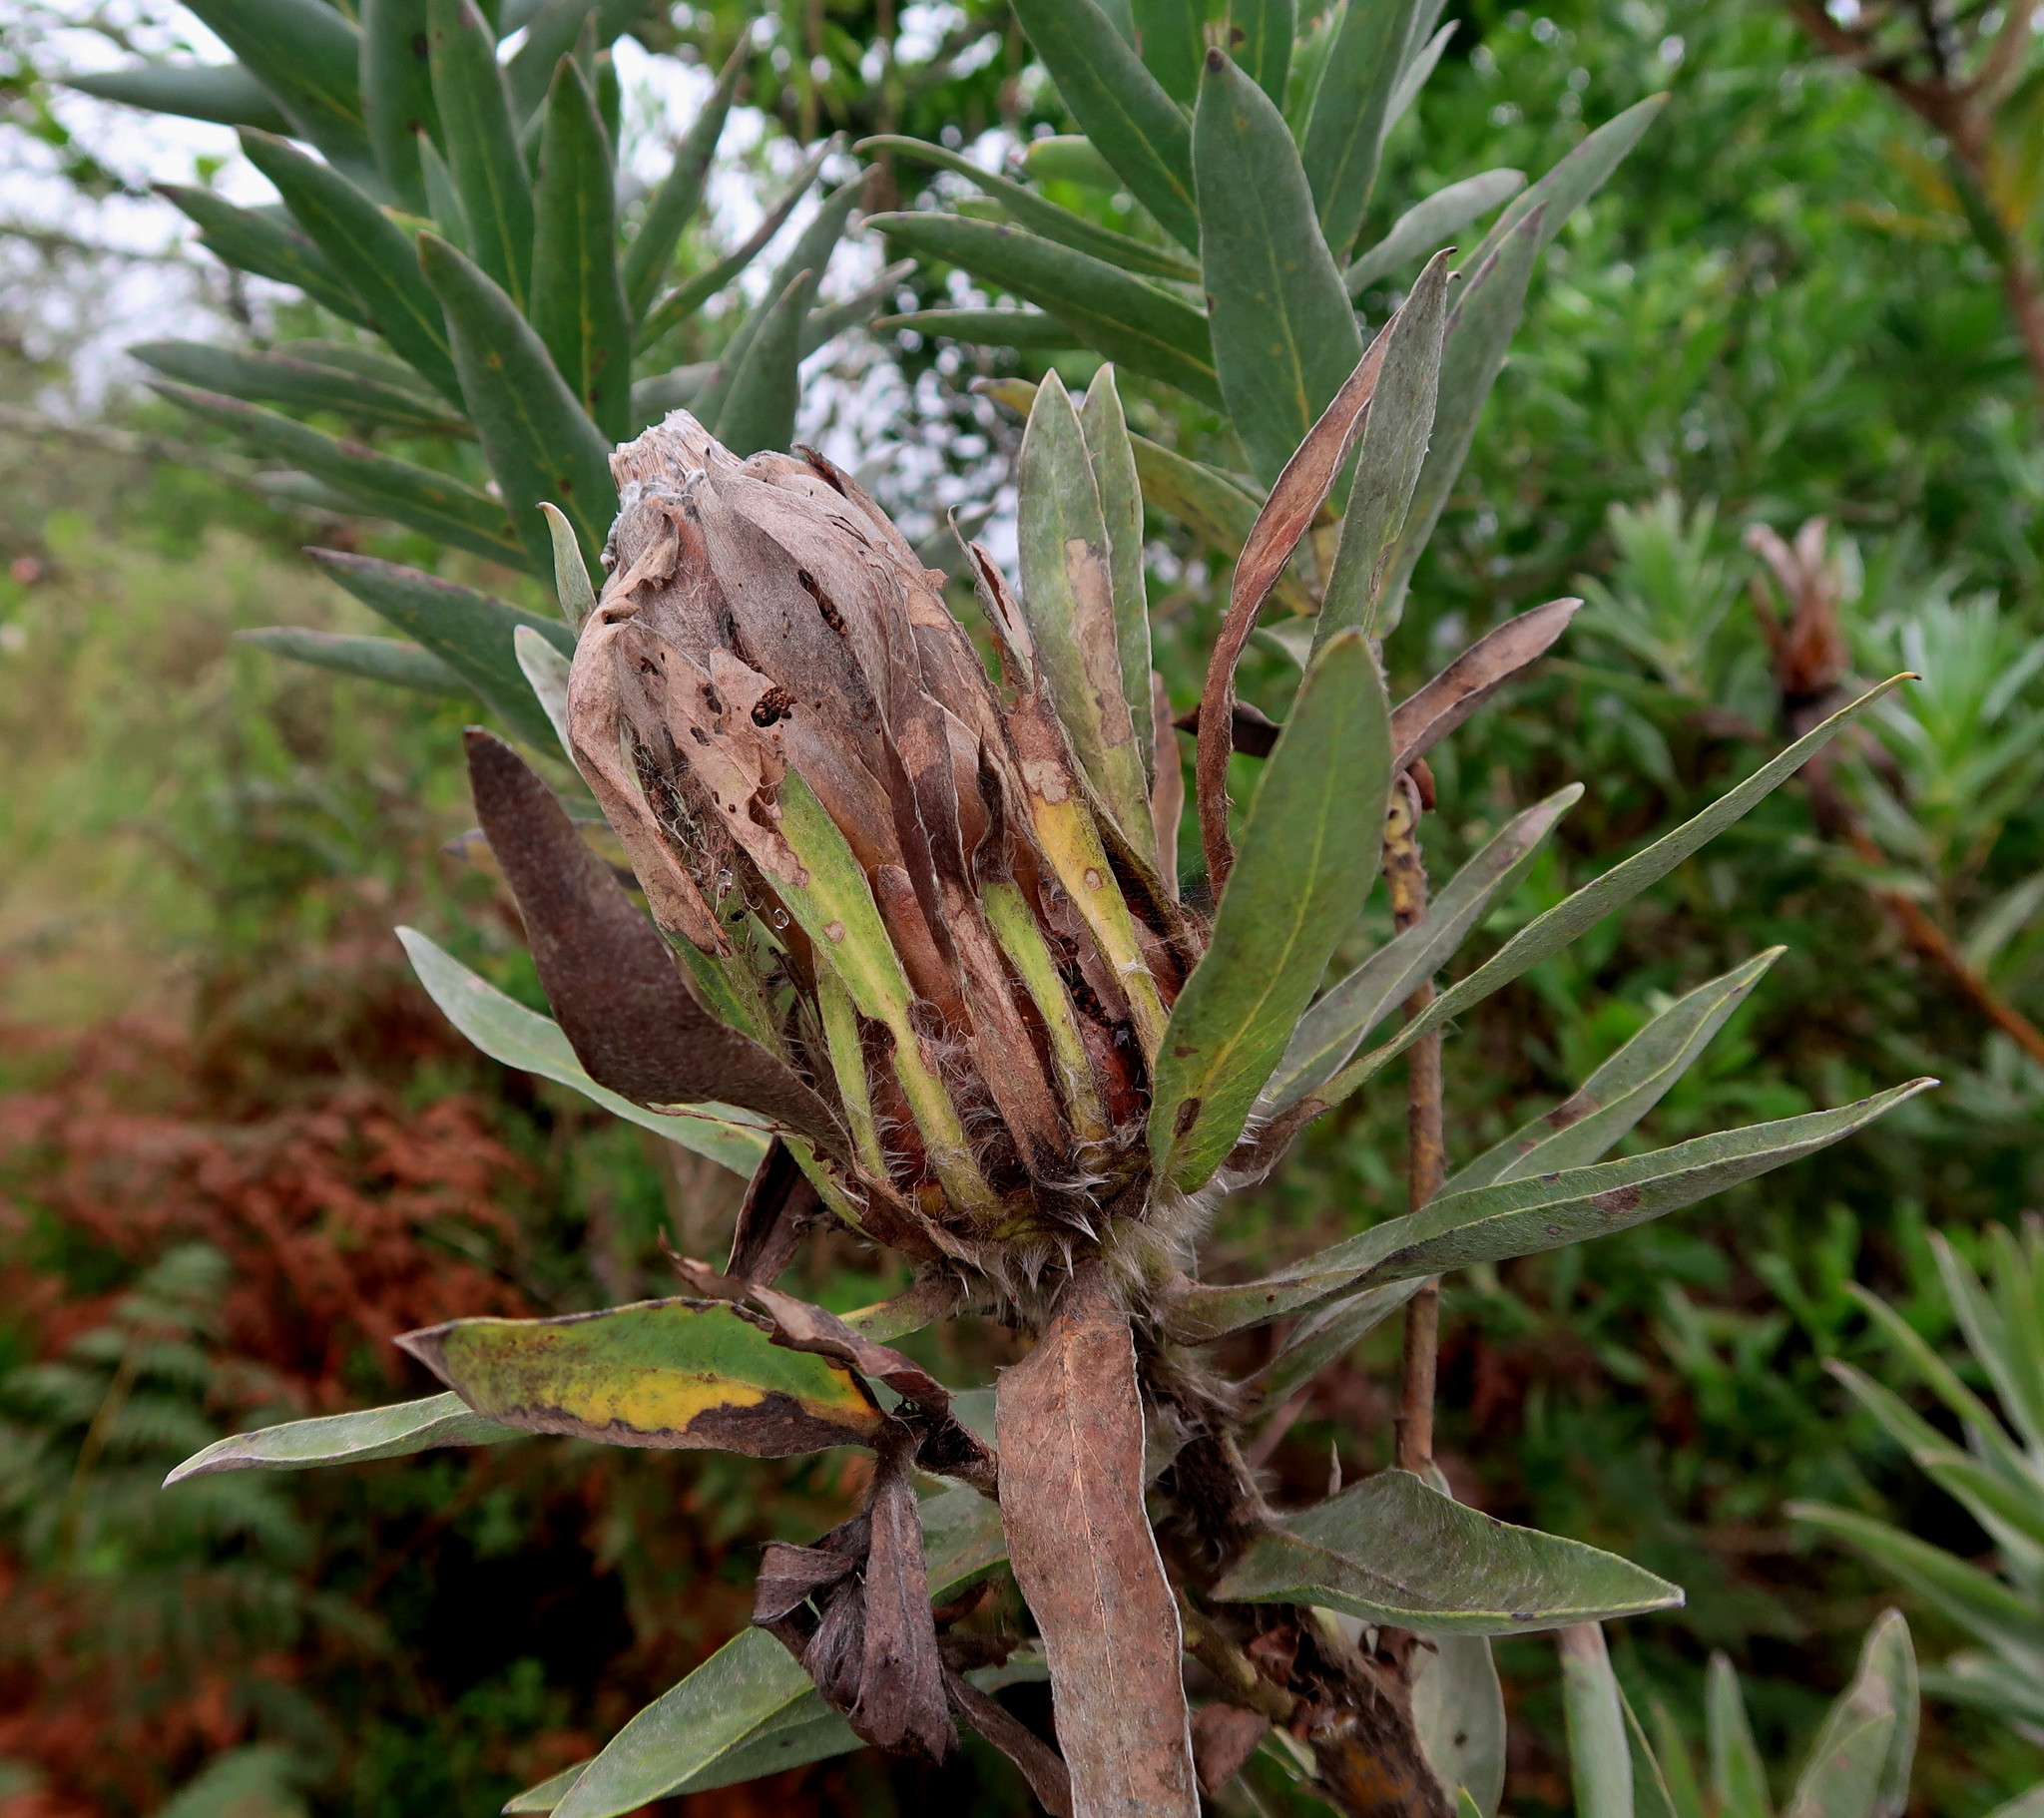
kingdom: Plantae
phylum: Tracheophyta
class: Magnoliopsida
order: Proteales
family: Proteaceae
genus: Protea
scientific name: Protea coronata
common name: Green sugarbush
